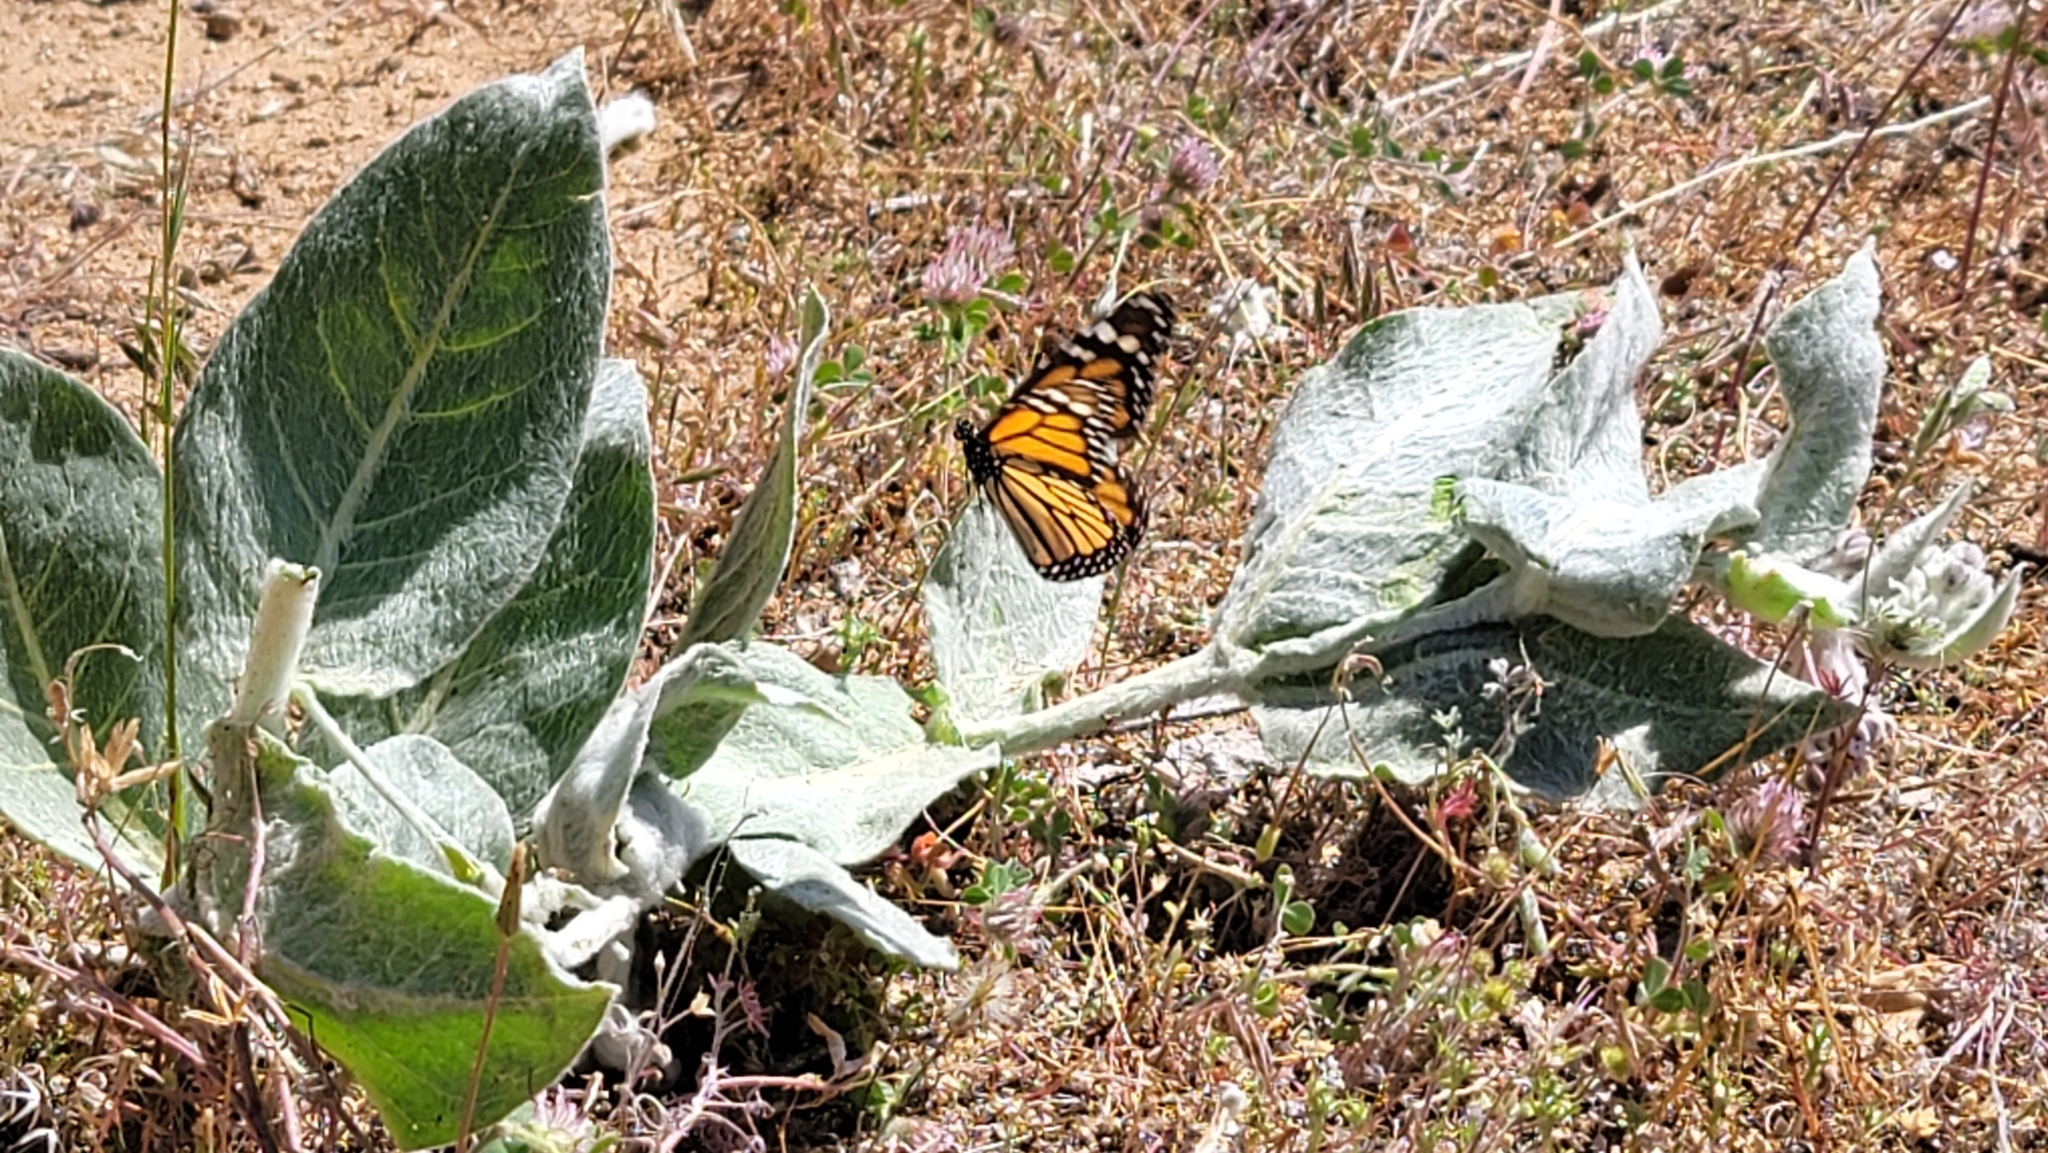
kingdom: Animalia
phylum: Arthropoda
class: Insecta
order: Lepidoptera
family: Nymphalidae
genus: Danaus
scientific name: Danaus plexippus
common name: Monarch
